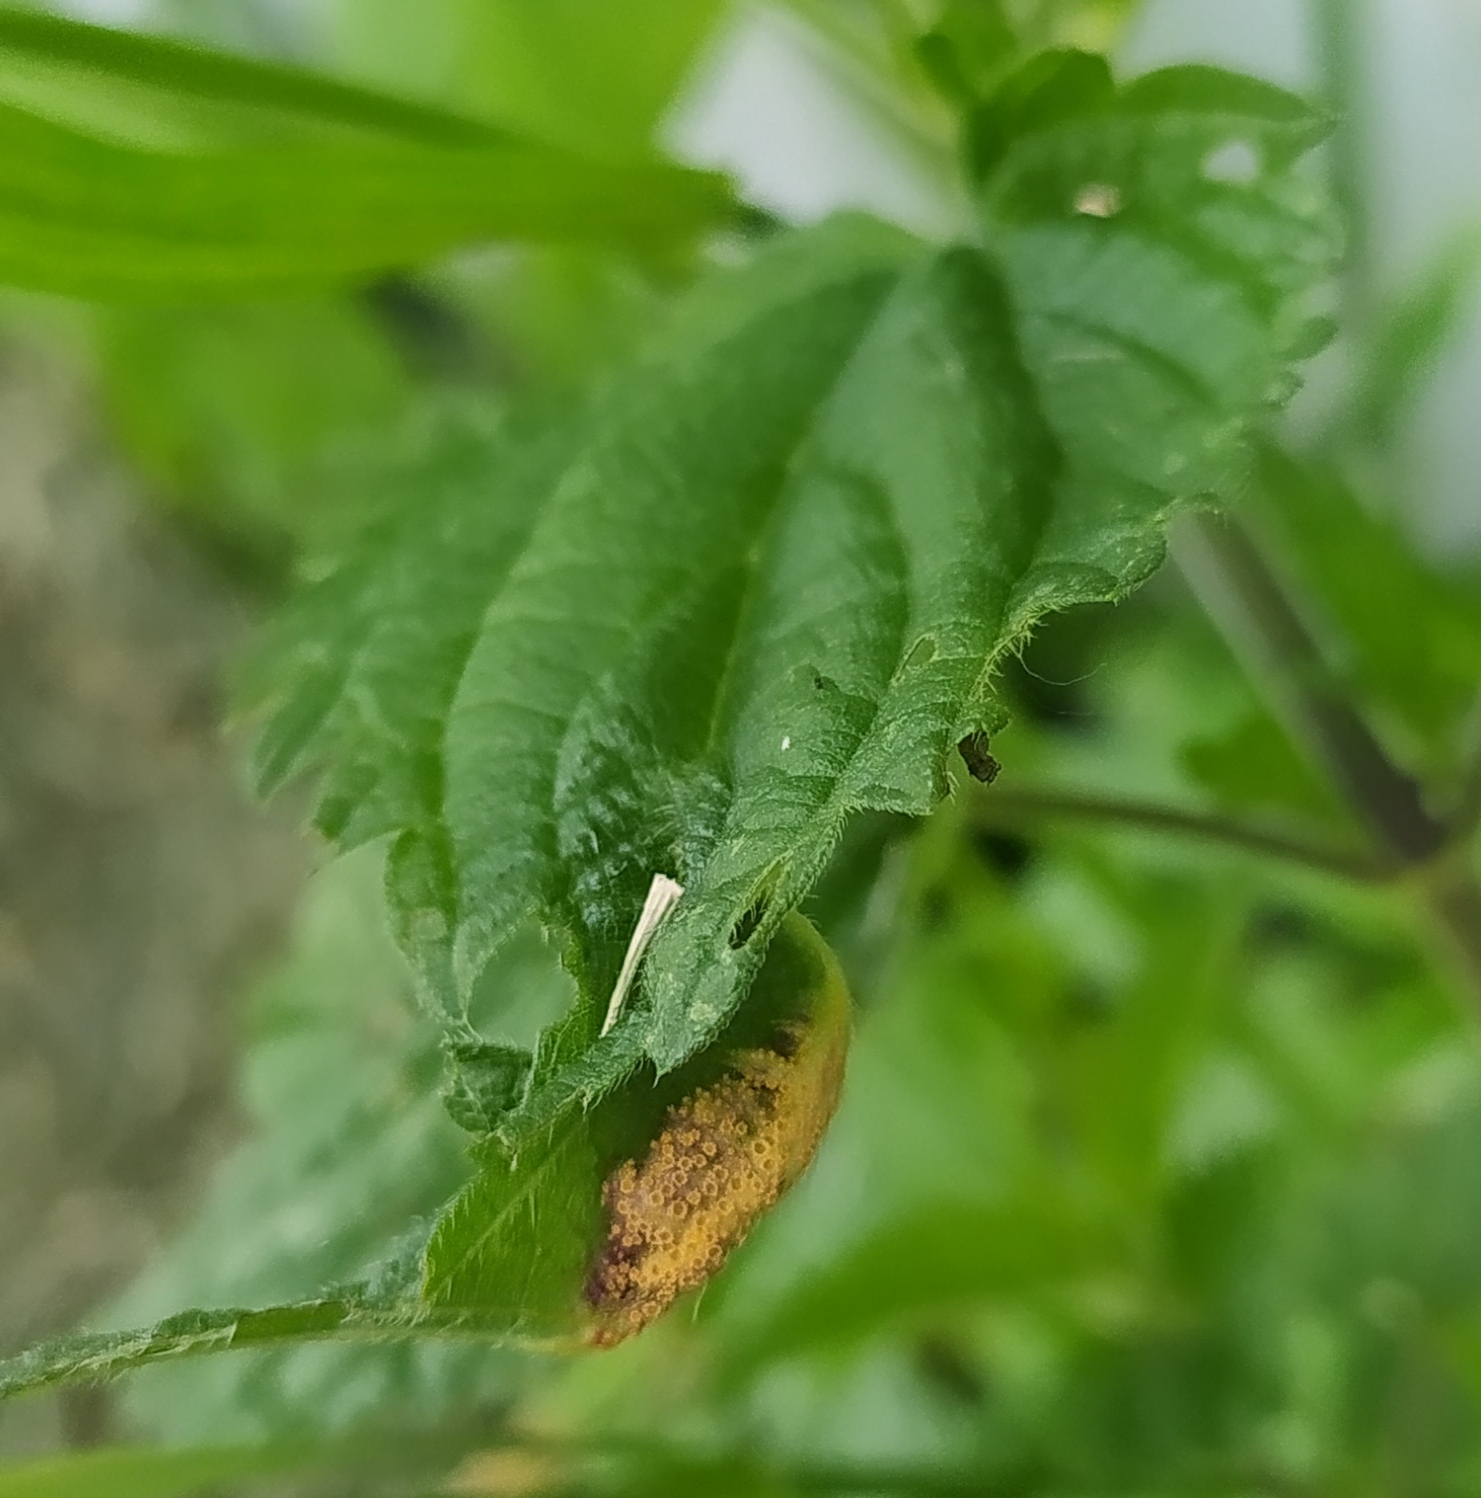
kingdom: Fungi
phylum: Basidiomycota
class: Pucciniomycetes
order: Pucciniales
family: Pucciniaceae
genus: Puccinia
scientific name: Puccinia urticata
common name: Nettle clustercup rust fungus
